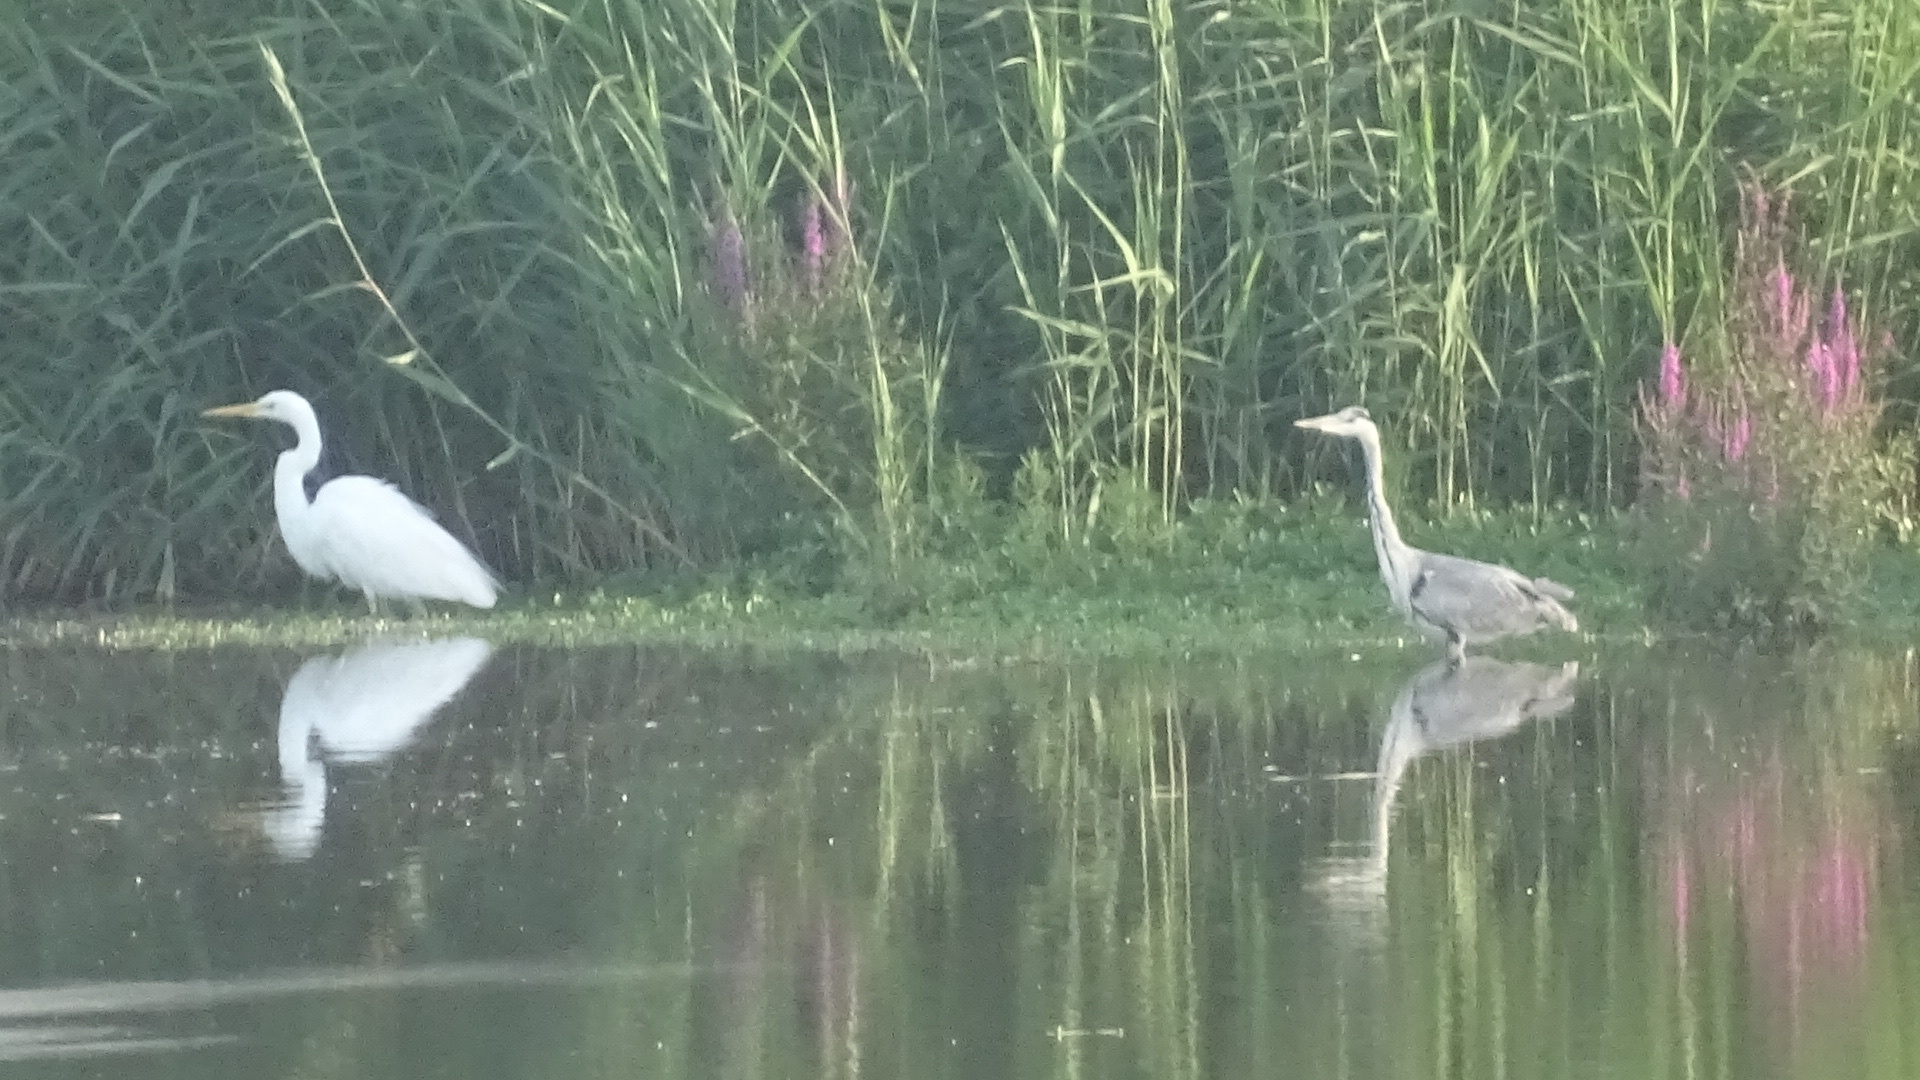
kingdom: Animalia
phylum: Chordata
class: Aves
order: Pelecaniformes
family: Ardeidae
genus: Ardea
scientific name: Ardea cinerea
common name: Grey heron
